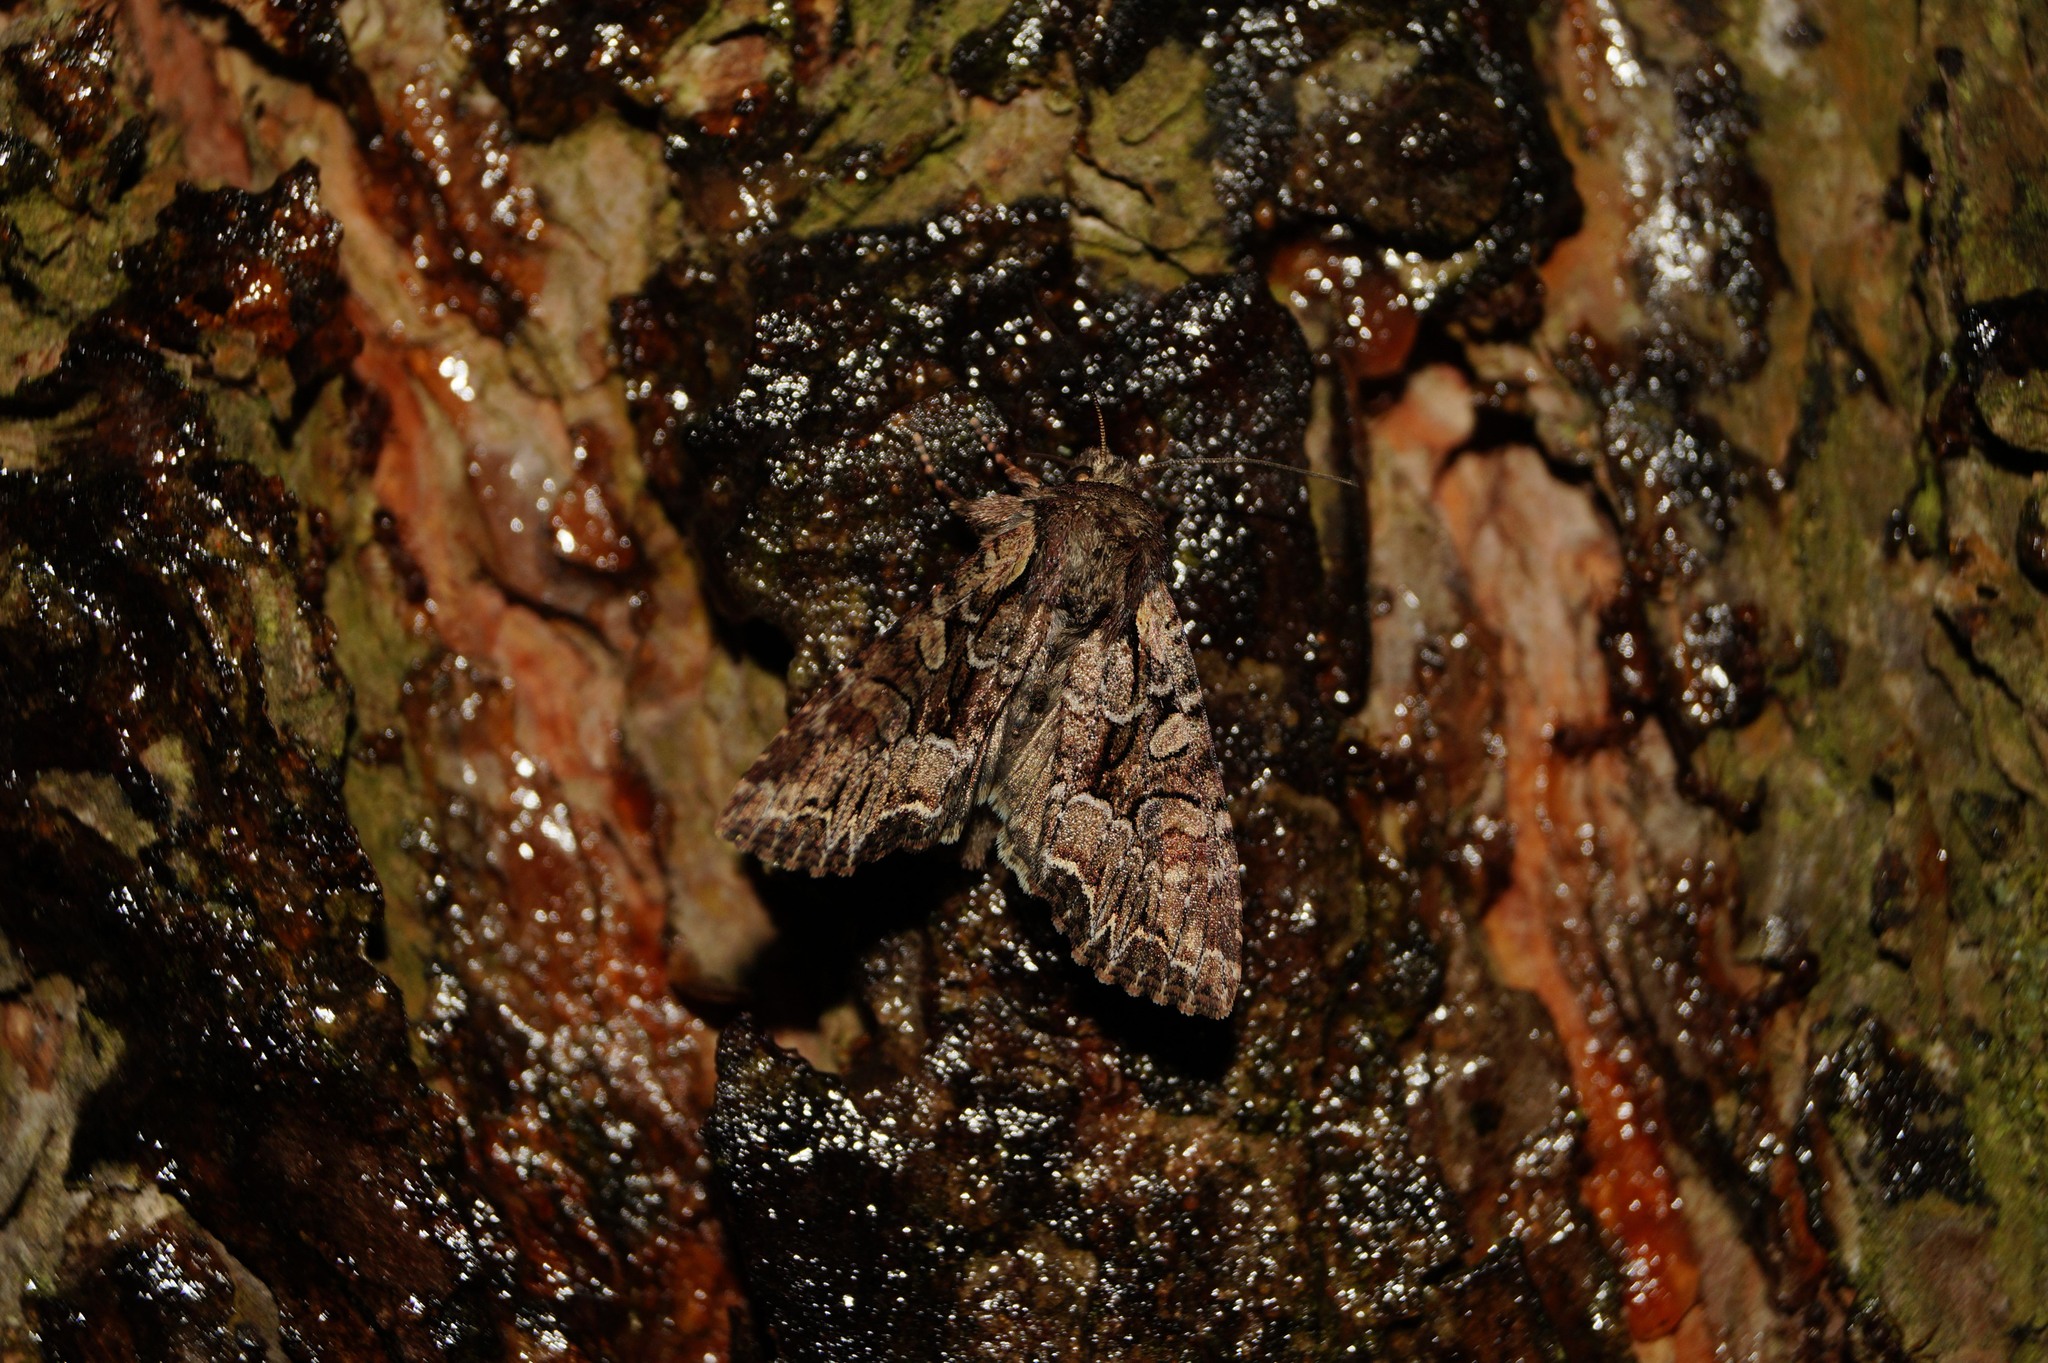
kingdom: Animalia
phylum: Arthropoda
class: Insecta
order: Lepidoptera
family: Noctuidae
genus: Lacanobia
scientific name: Lacanobia thalassina
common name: Pale-shouldered brocade
